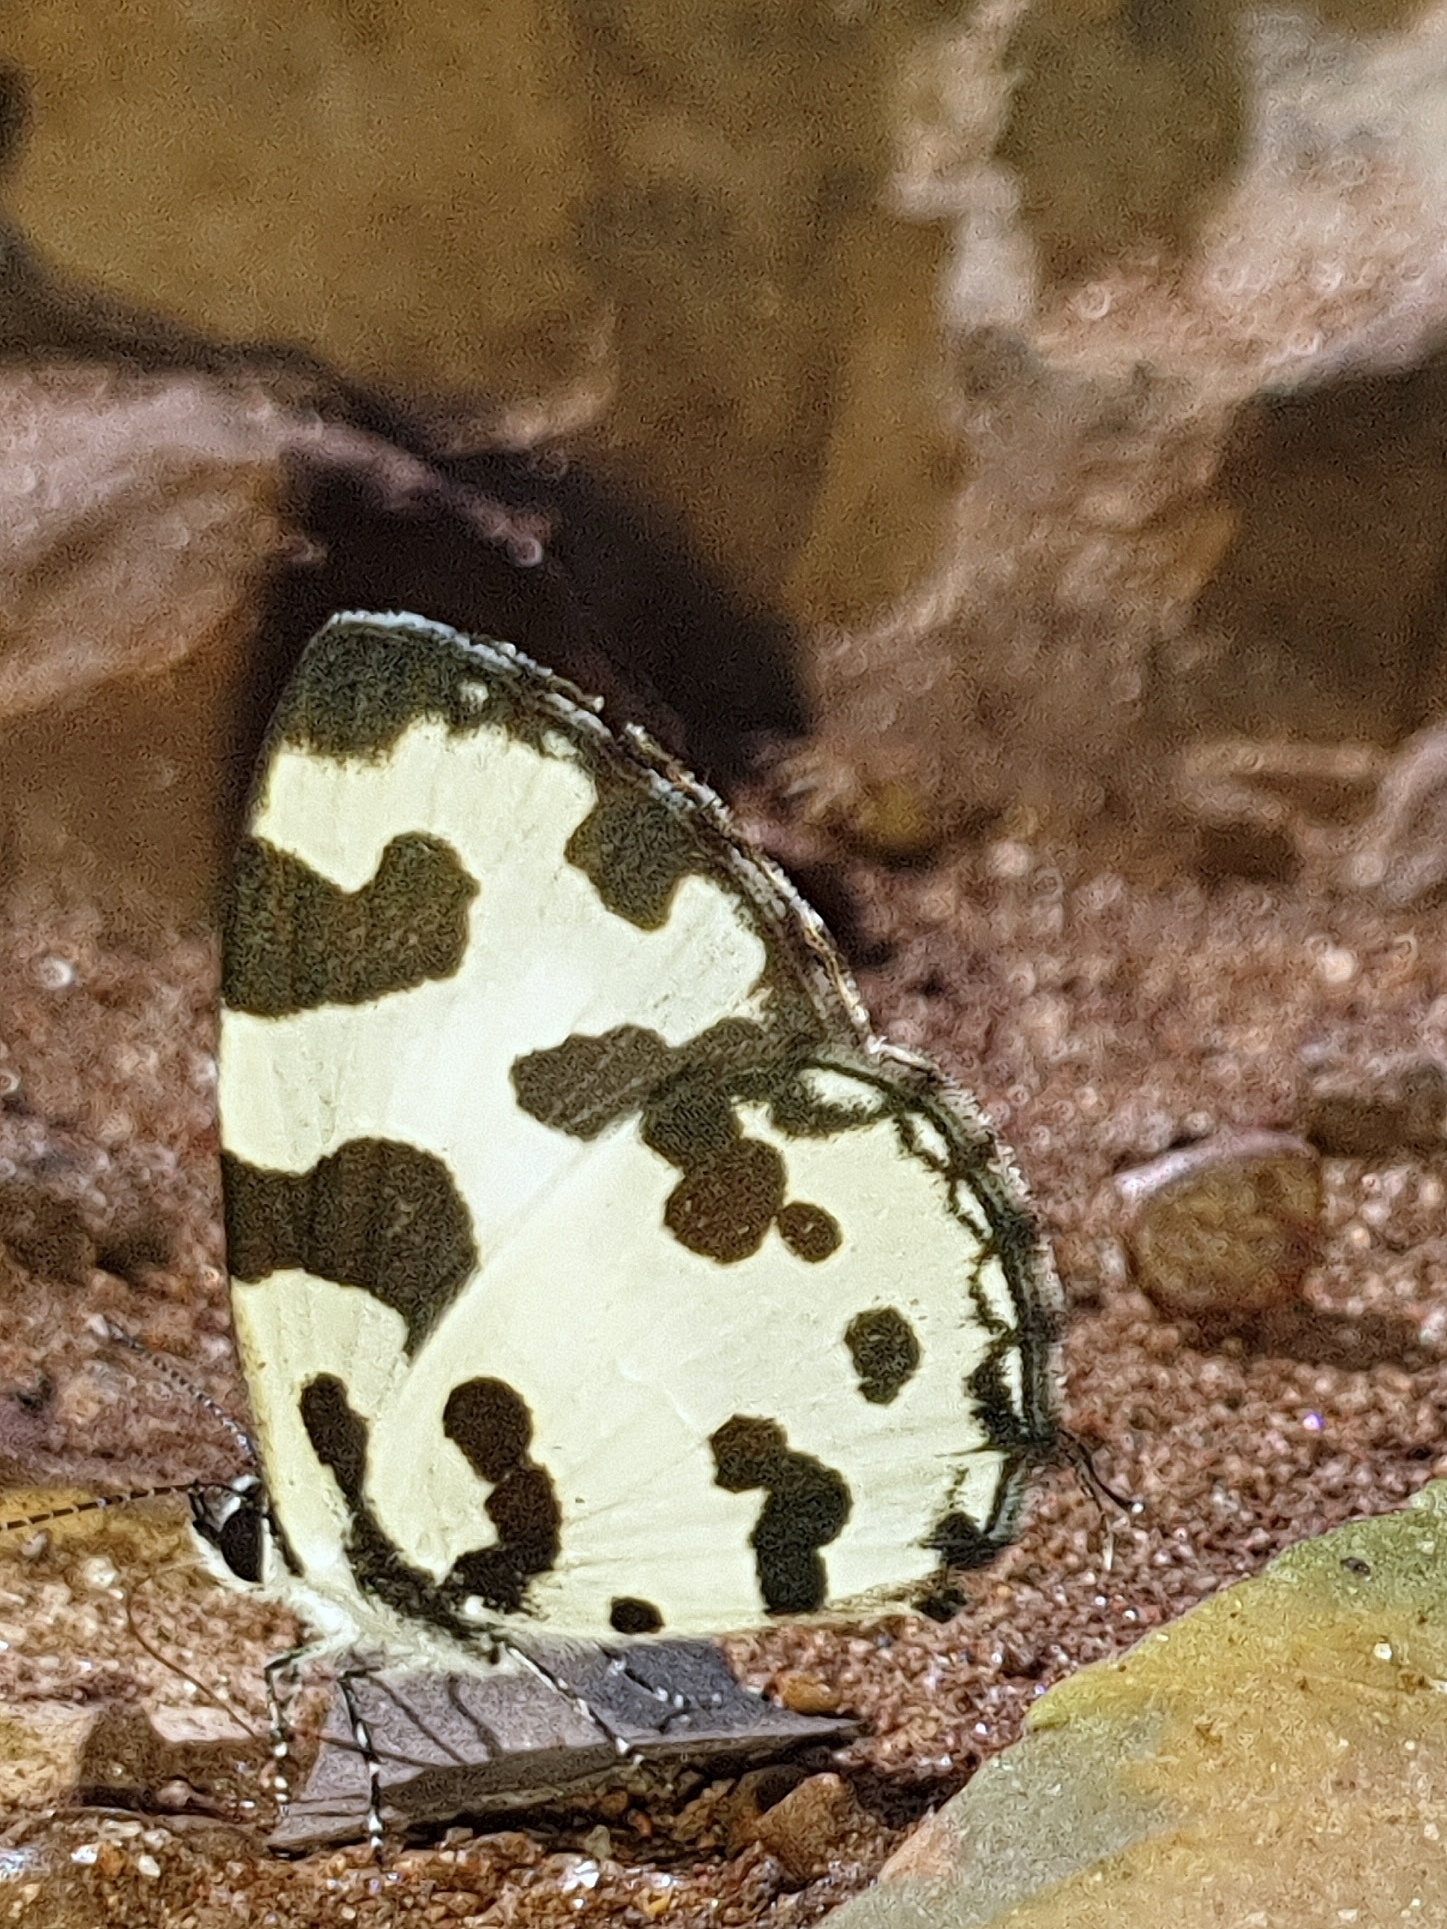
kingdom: Animalia
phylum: Arthropoda
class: Insecta
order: Lepidoptera
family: Lycaenidae
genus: Caleta
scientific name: Caleta decidia
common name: Angled pierrot
